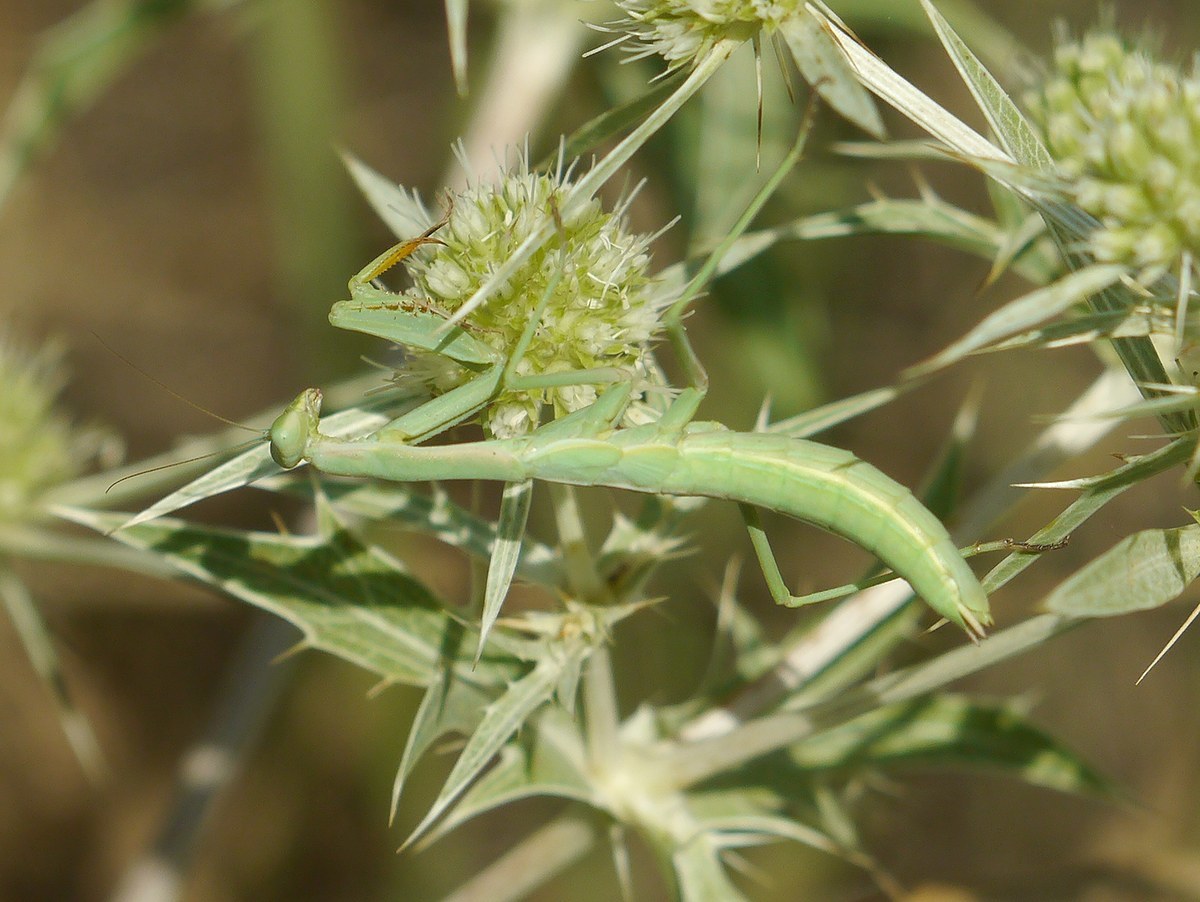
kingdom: Animalia
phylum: Arthropoda
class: Insecta
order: Mantodea
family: Eremiaphilidae
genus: Iris
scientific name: Iris polystictica
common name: Dot-winged mantis
